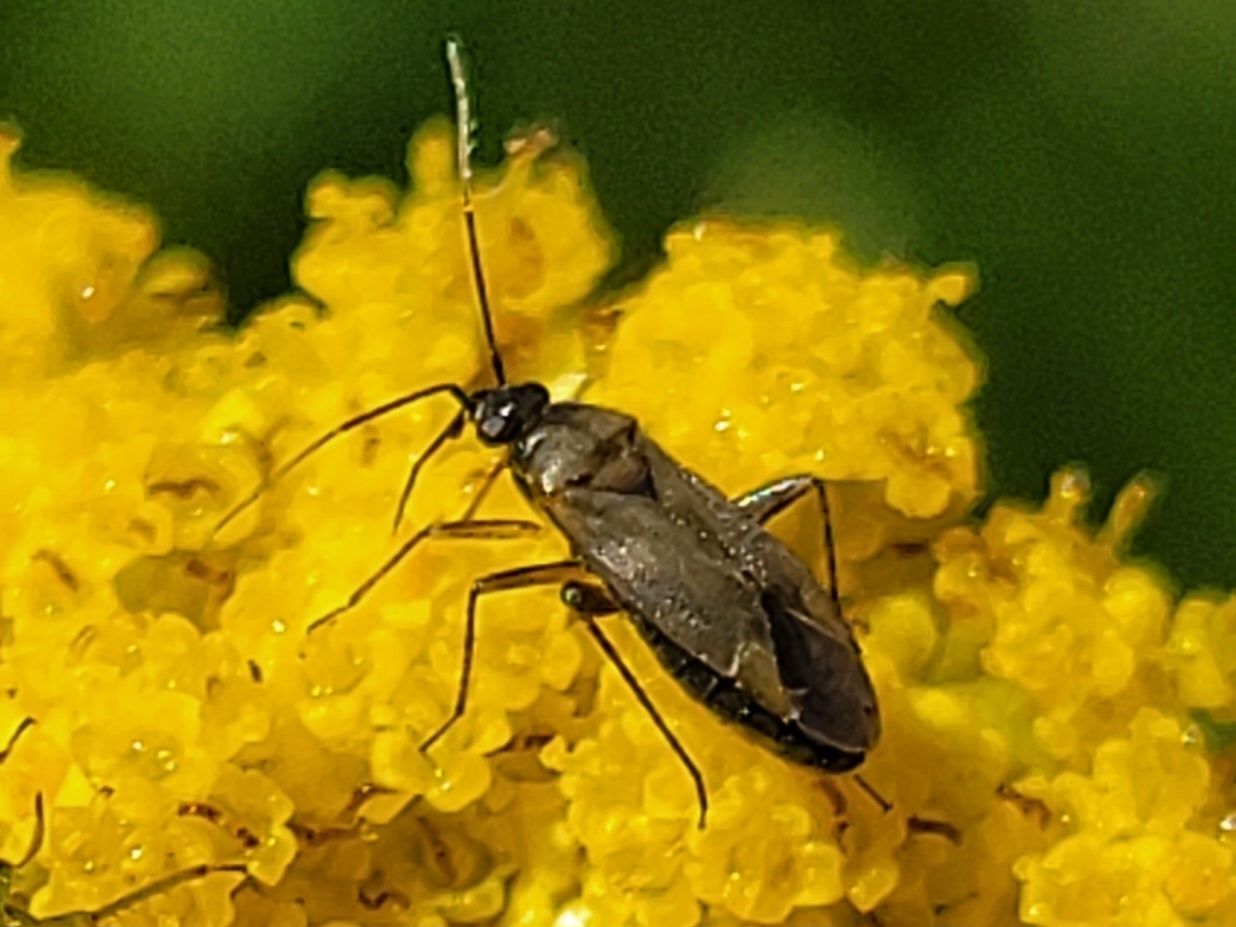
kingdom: Animalia
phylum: Arthropoda
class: Insecta
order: Hemiptera
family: Miridae
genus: Plagiognathus
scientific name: Plagiognathus arbustorum
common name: Plant bug
